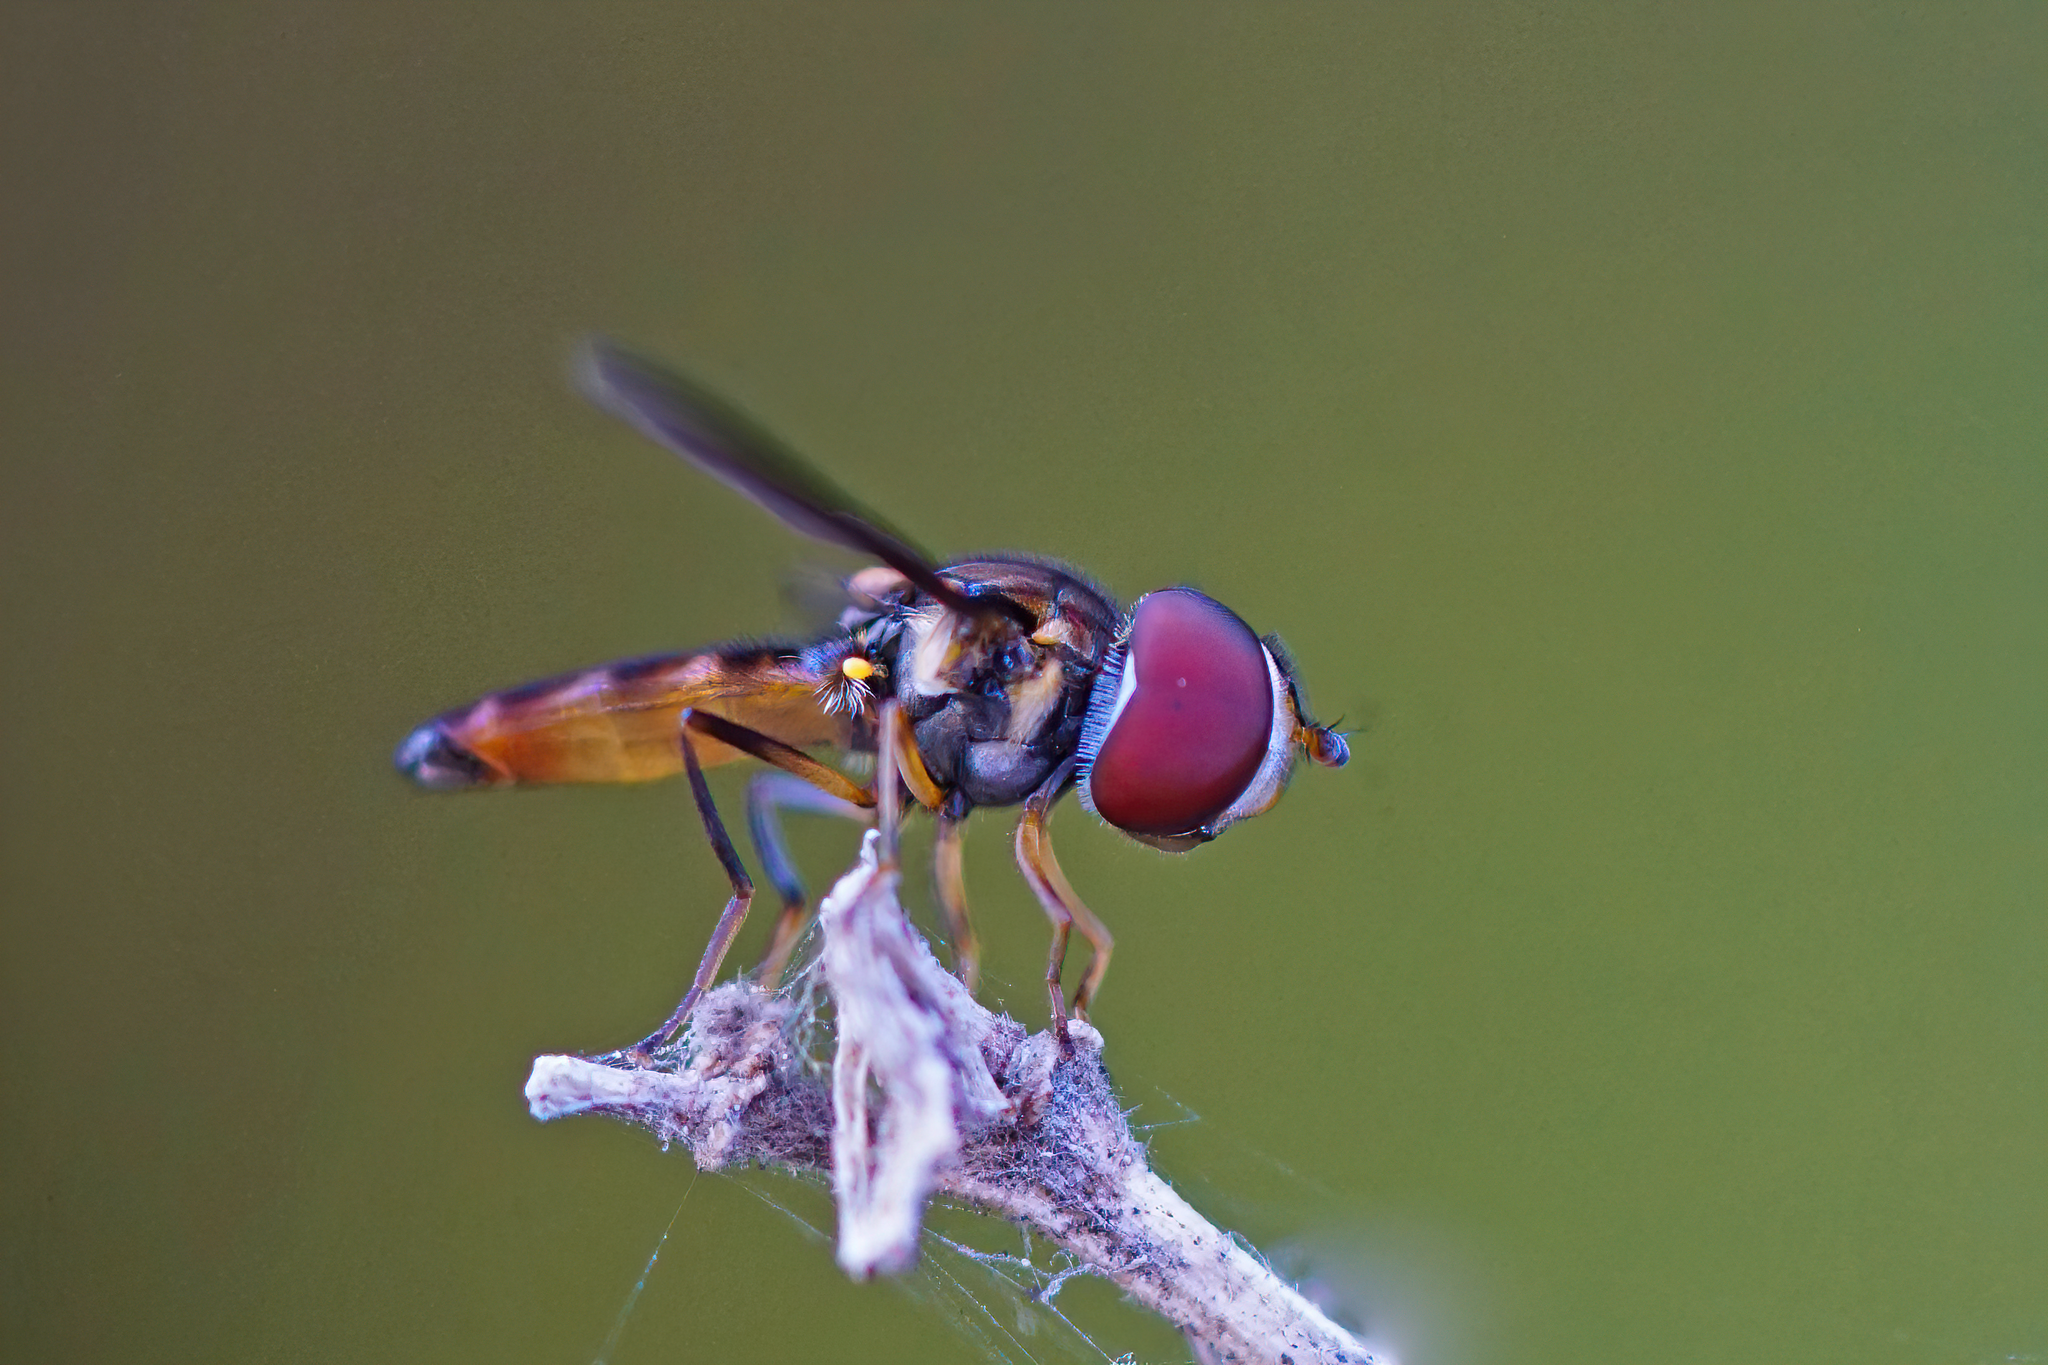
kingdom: Animalia
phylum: Arthropoda
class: Insecta
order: Diptera
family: Syrphidae
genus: Ocyptamus
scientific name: Ocyptamus antiphates
